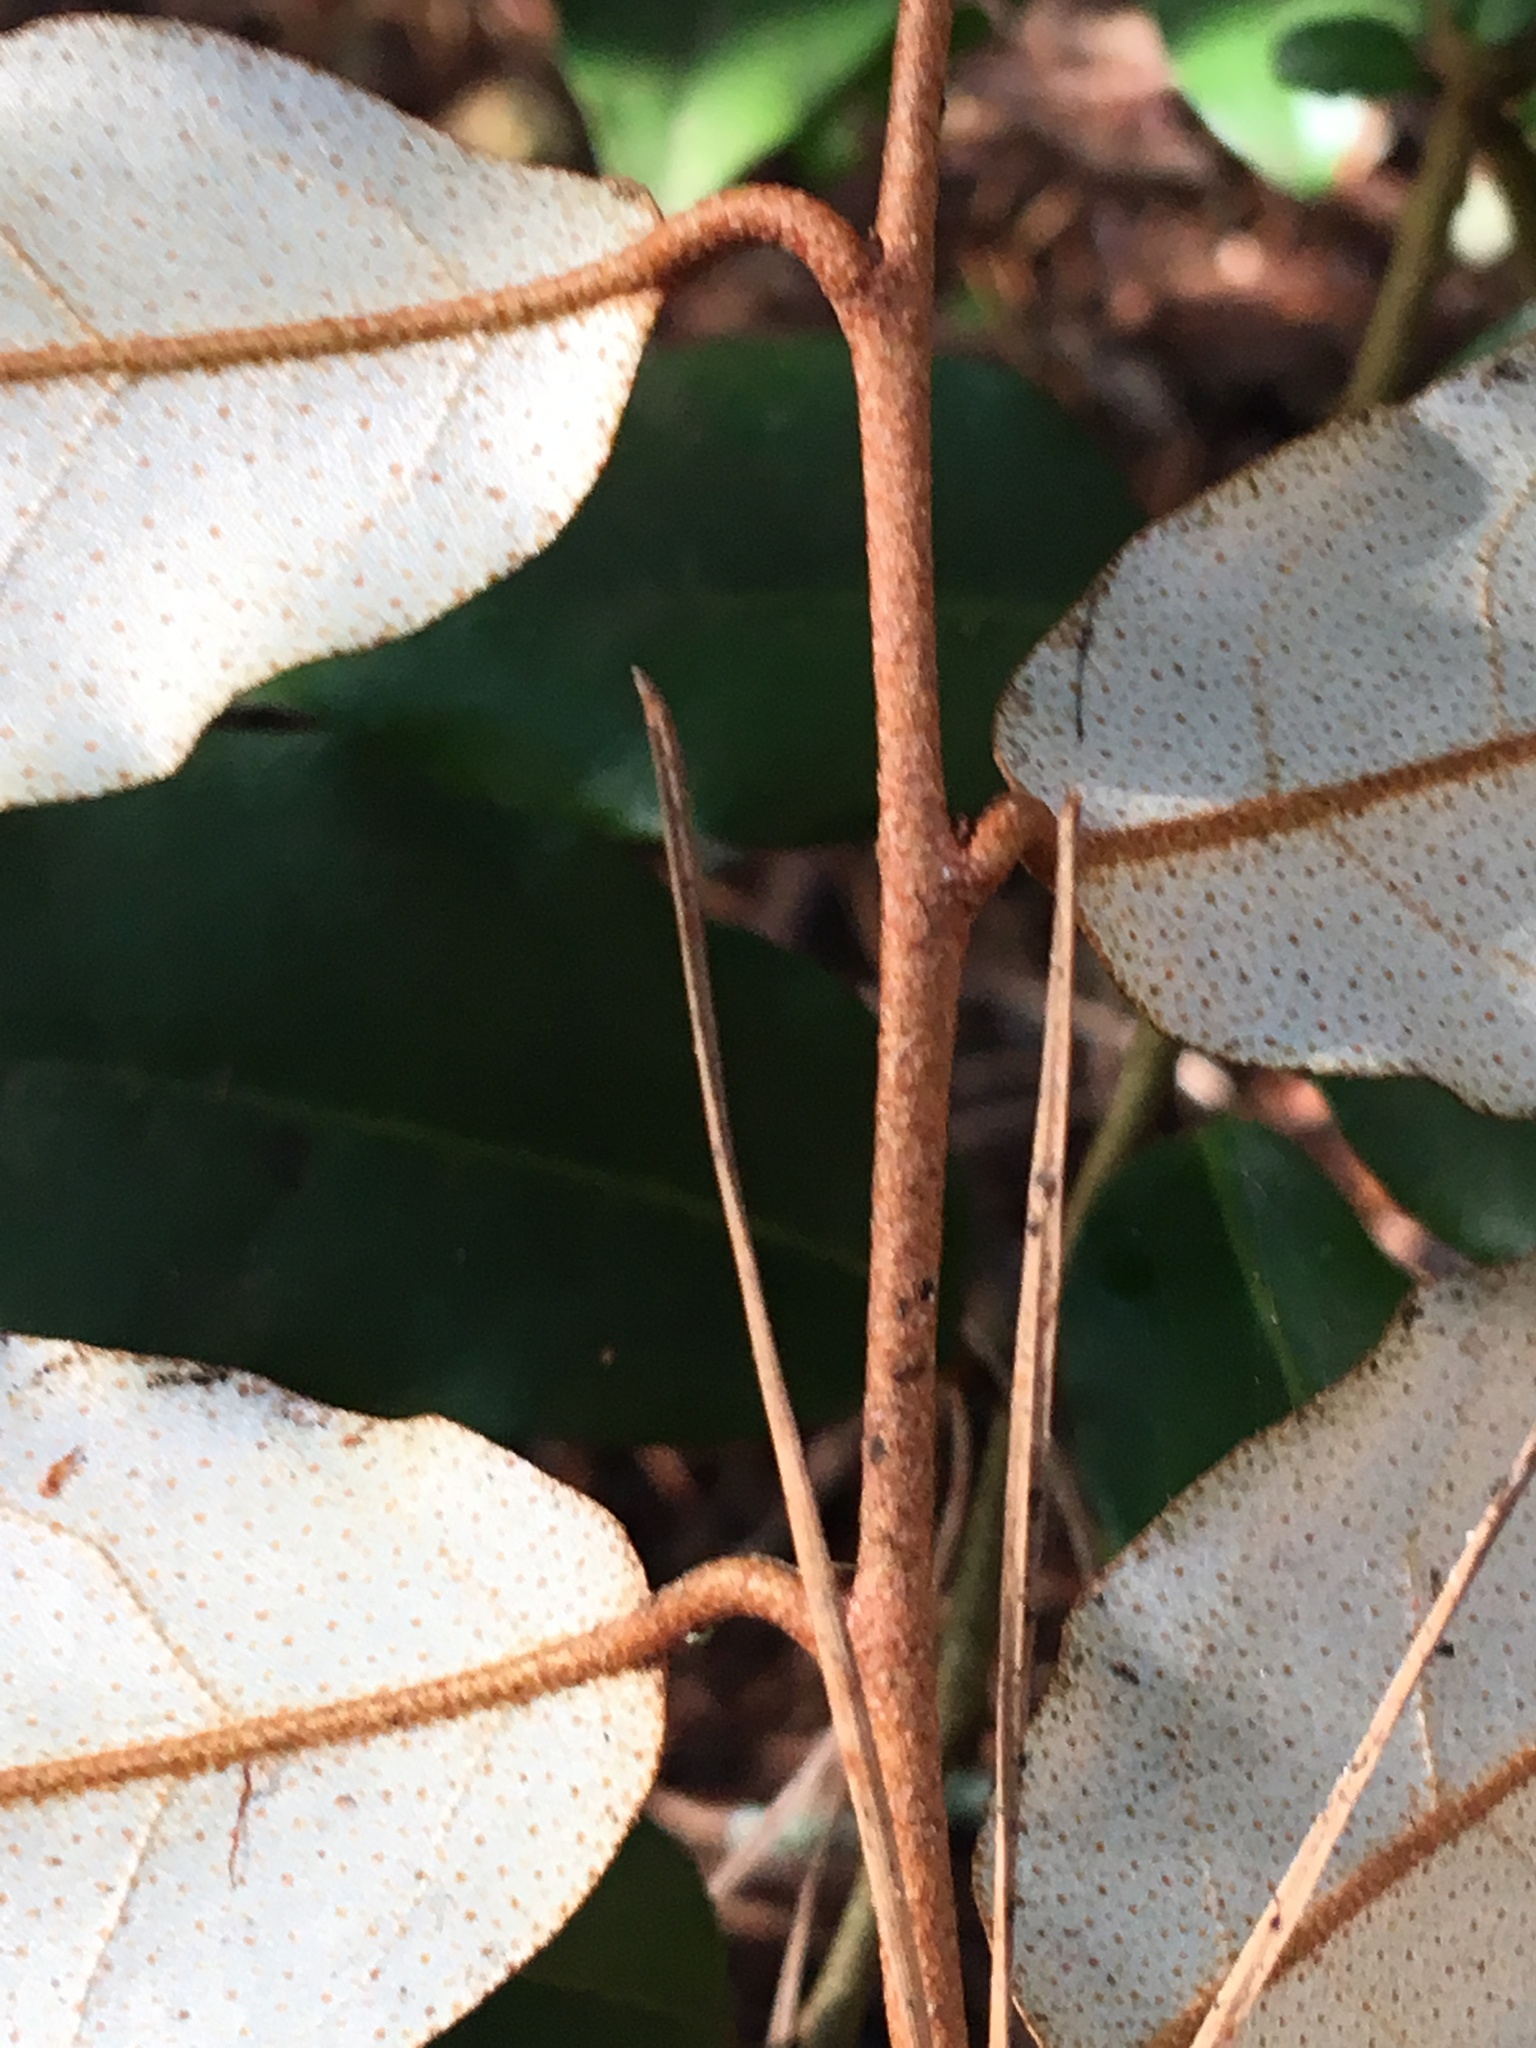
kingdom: Plantae
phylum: Tracheophyta
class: Magnoliopsida
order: Rosales
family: Elaeagnaceae
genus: Elaeagnus
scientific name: Elaeagnus reflexa
